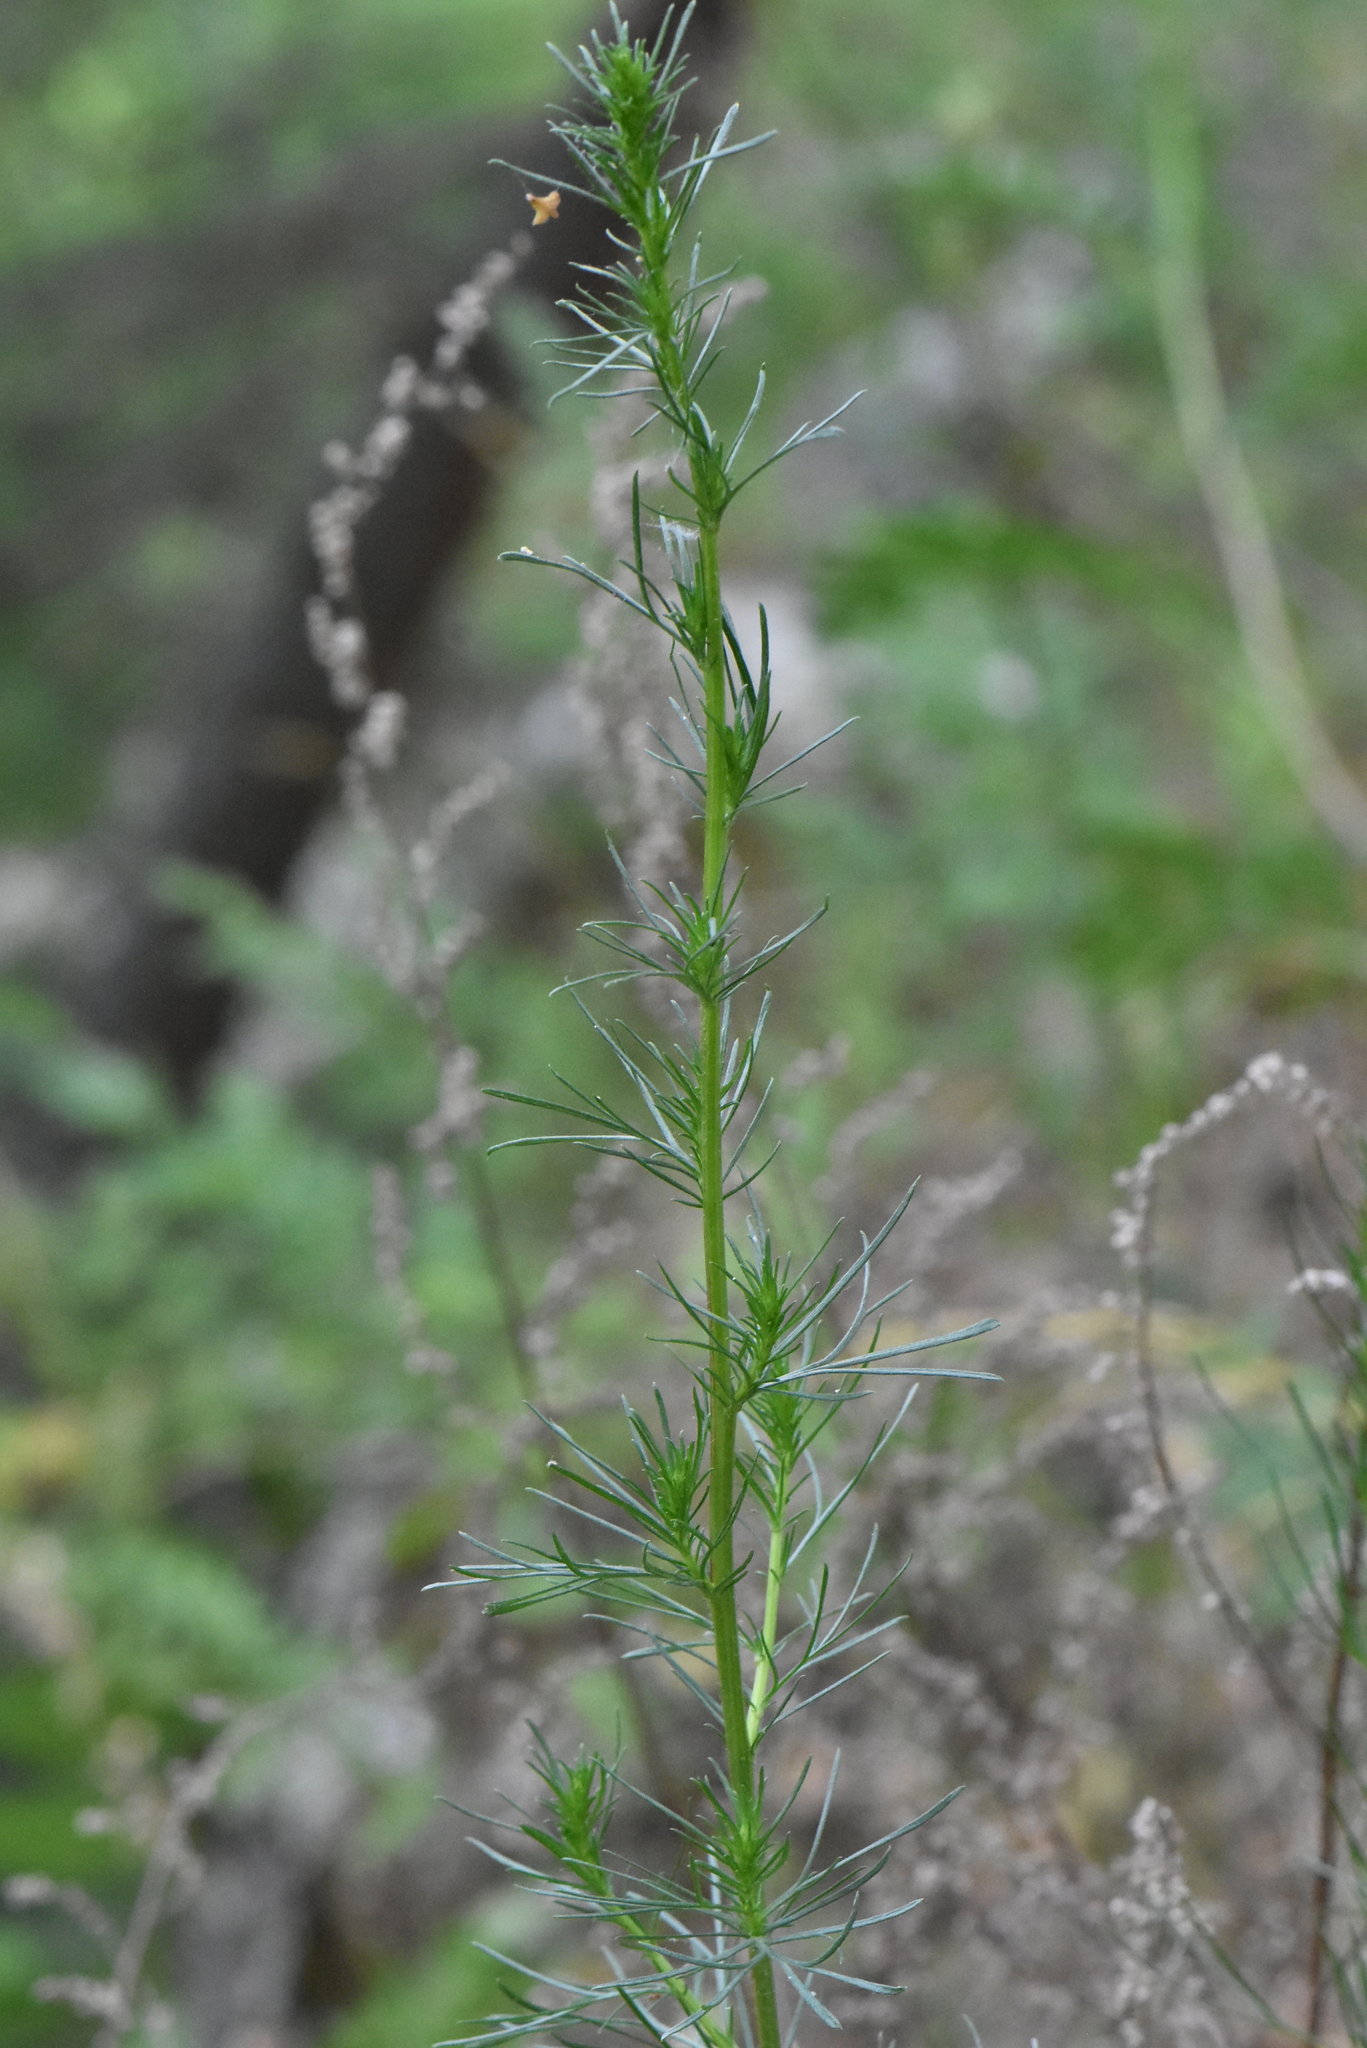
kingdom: Plantae
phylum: Tracheophyta
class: Magnoliopsida
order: Asterales
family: Asteraceae
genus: Artemisia
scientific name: Artemisia campestris
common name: Field wormwood
